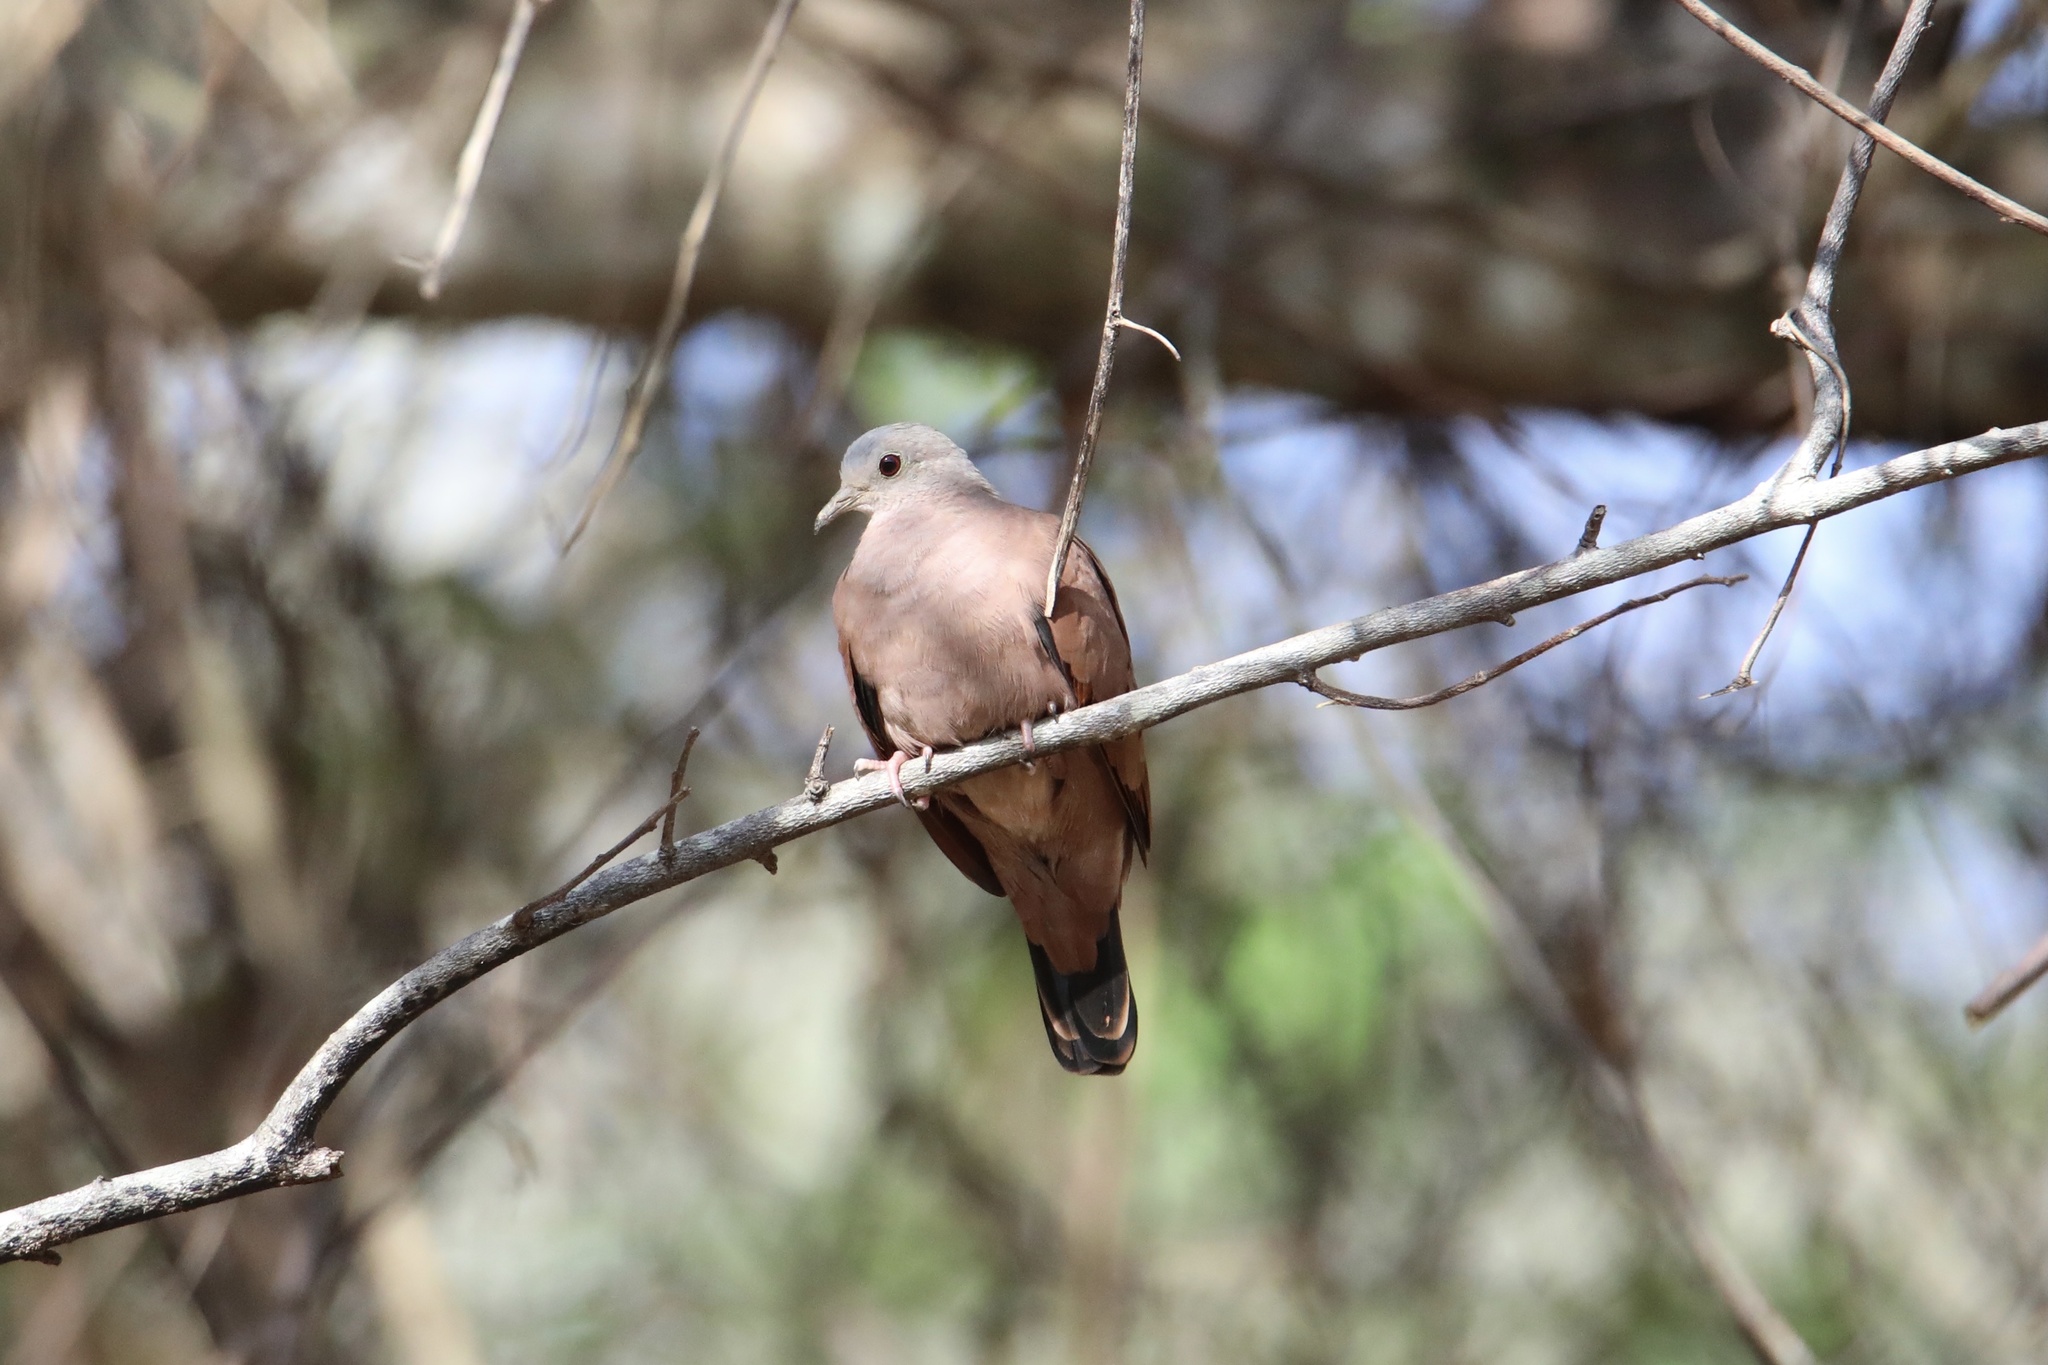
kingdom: Animalia
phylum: Chordata
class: Aves
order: Columbiformes
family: Columbidae
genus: Columbina
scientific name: Columbina talpacoti
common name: Ruddy ground dove
